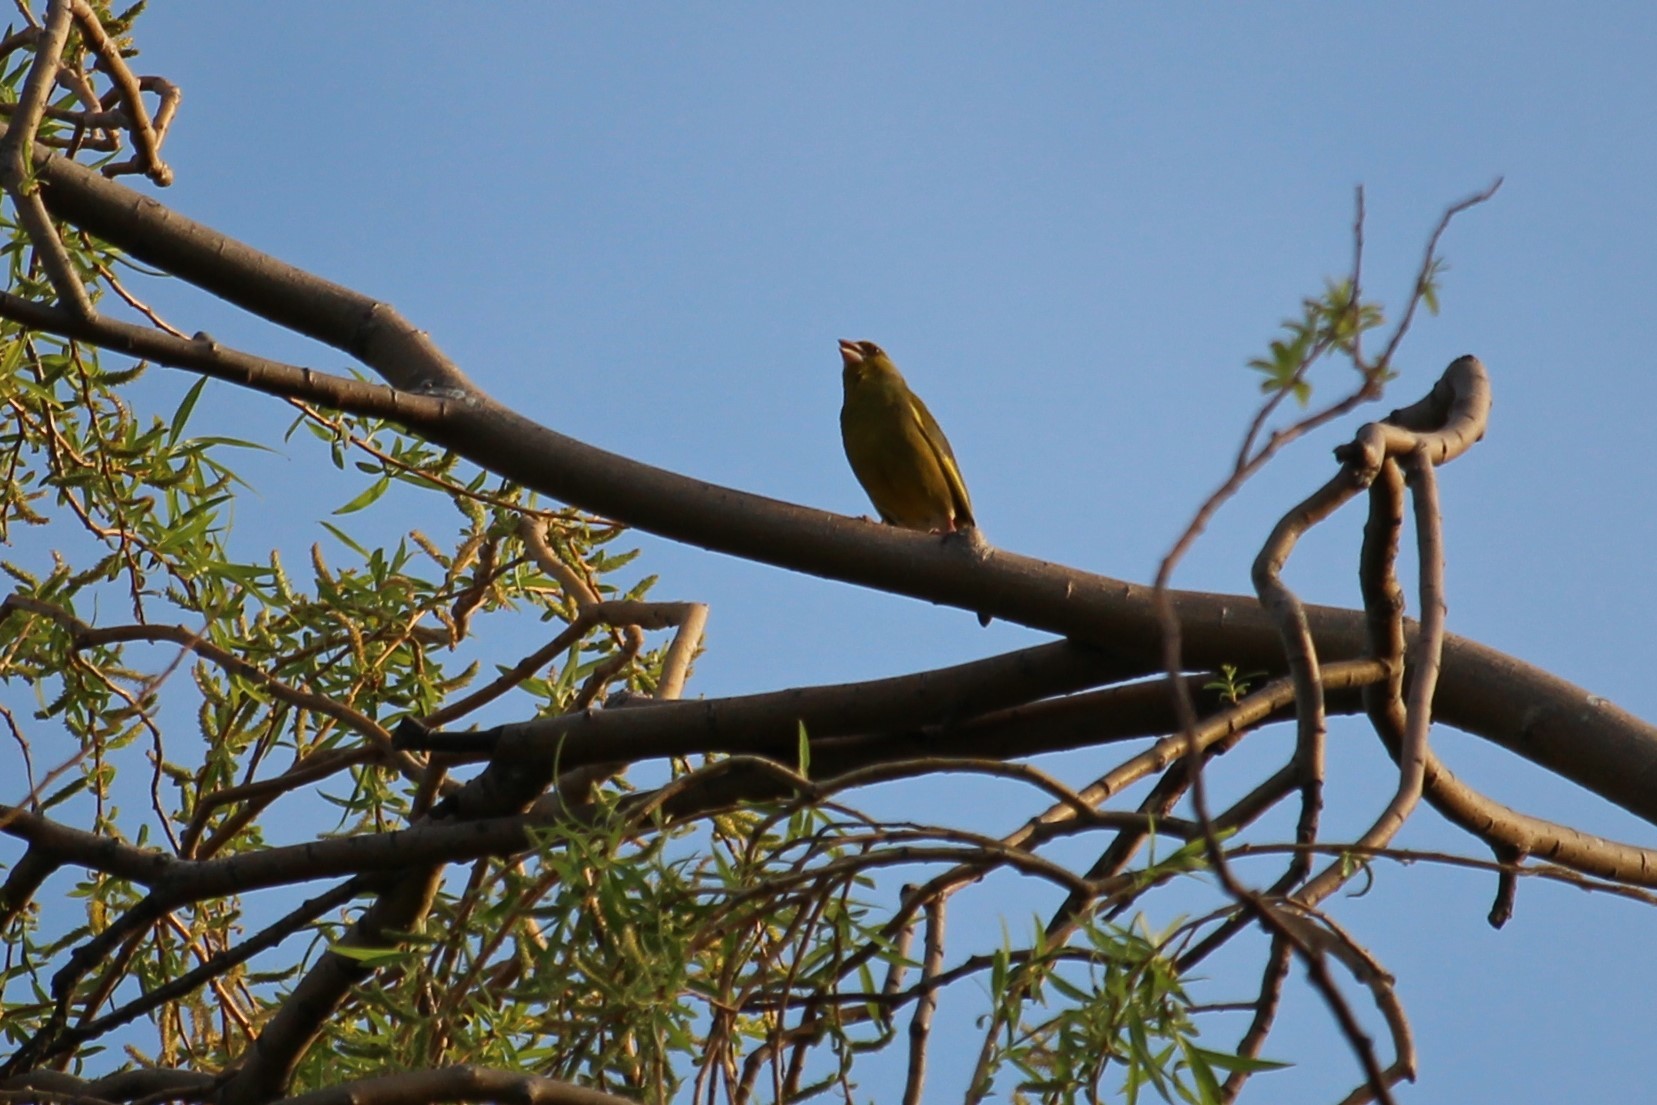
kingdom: Plantae
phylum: Tracheophyta
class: Liliopsida
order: Poales
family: Poaceae
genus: Chloris
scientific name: Chloris chloris
